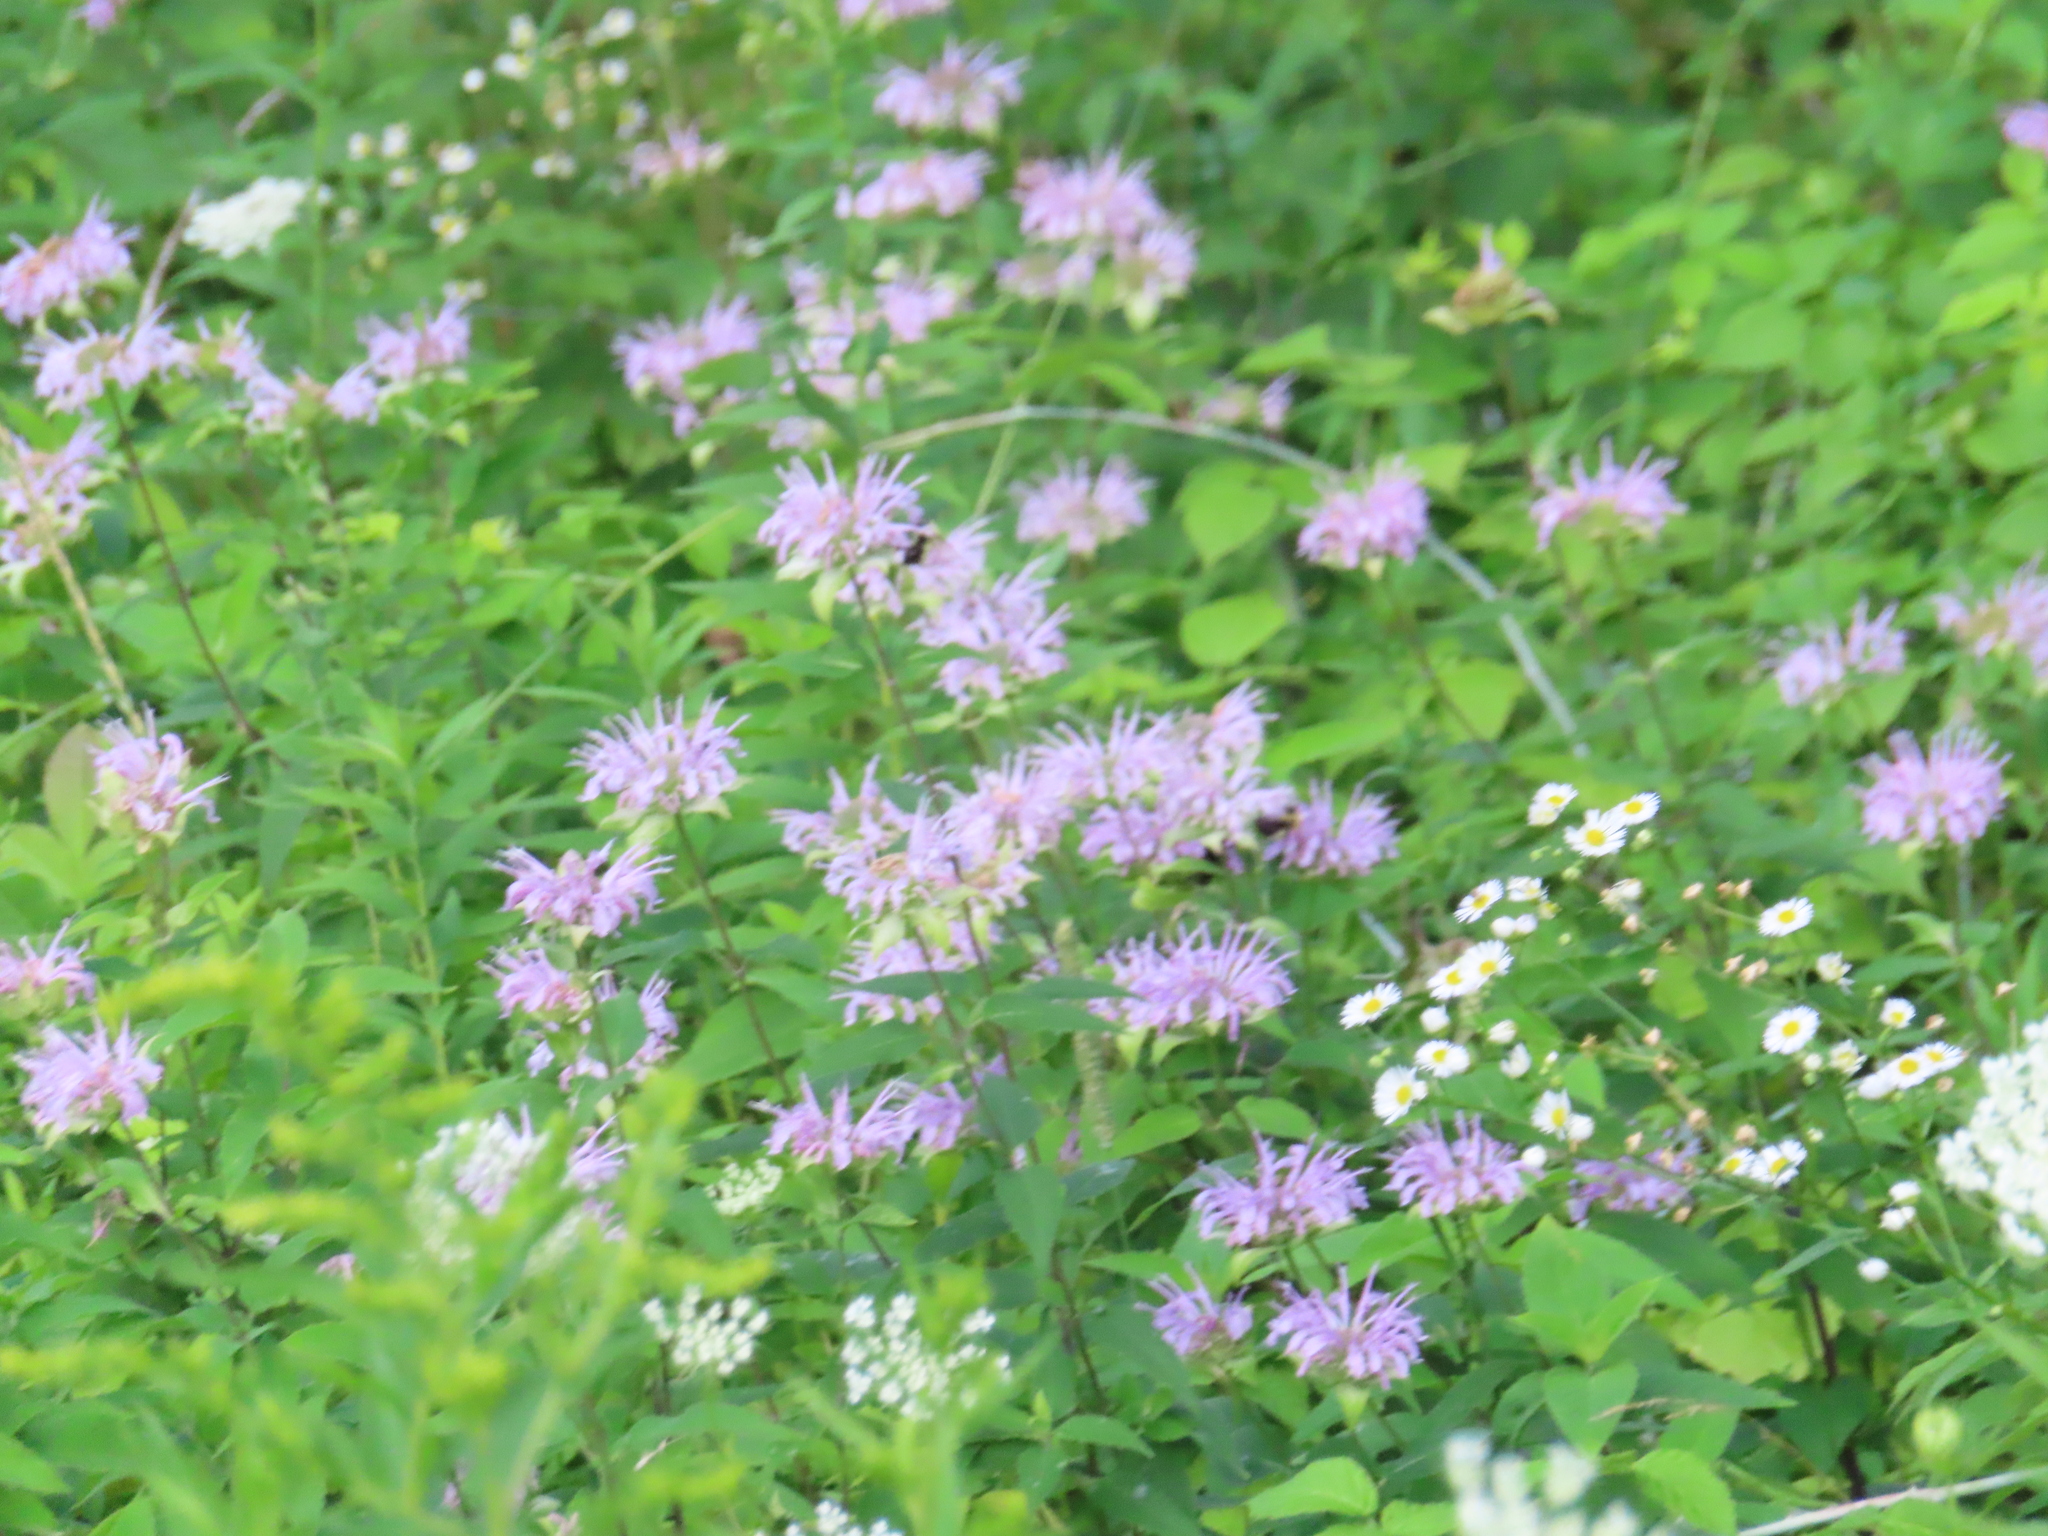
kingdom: Plantae
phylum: Tracheophyta
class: Magnoliopsida
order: Lamiales
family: Lamiaceae
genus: Monarda
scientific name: Monarda fistulosa
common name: Purple beebalm
